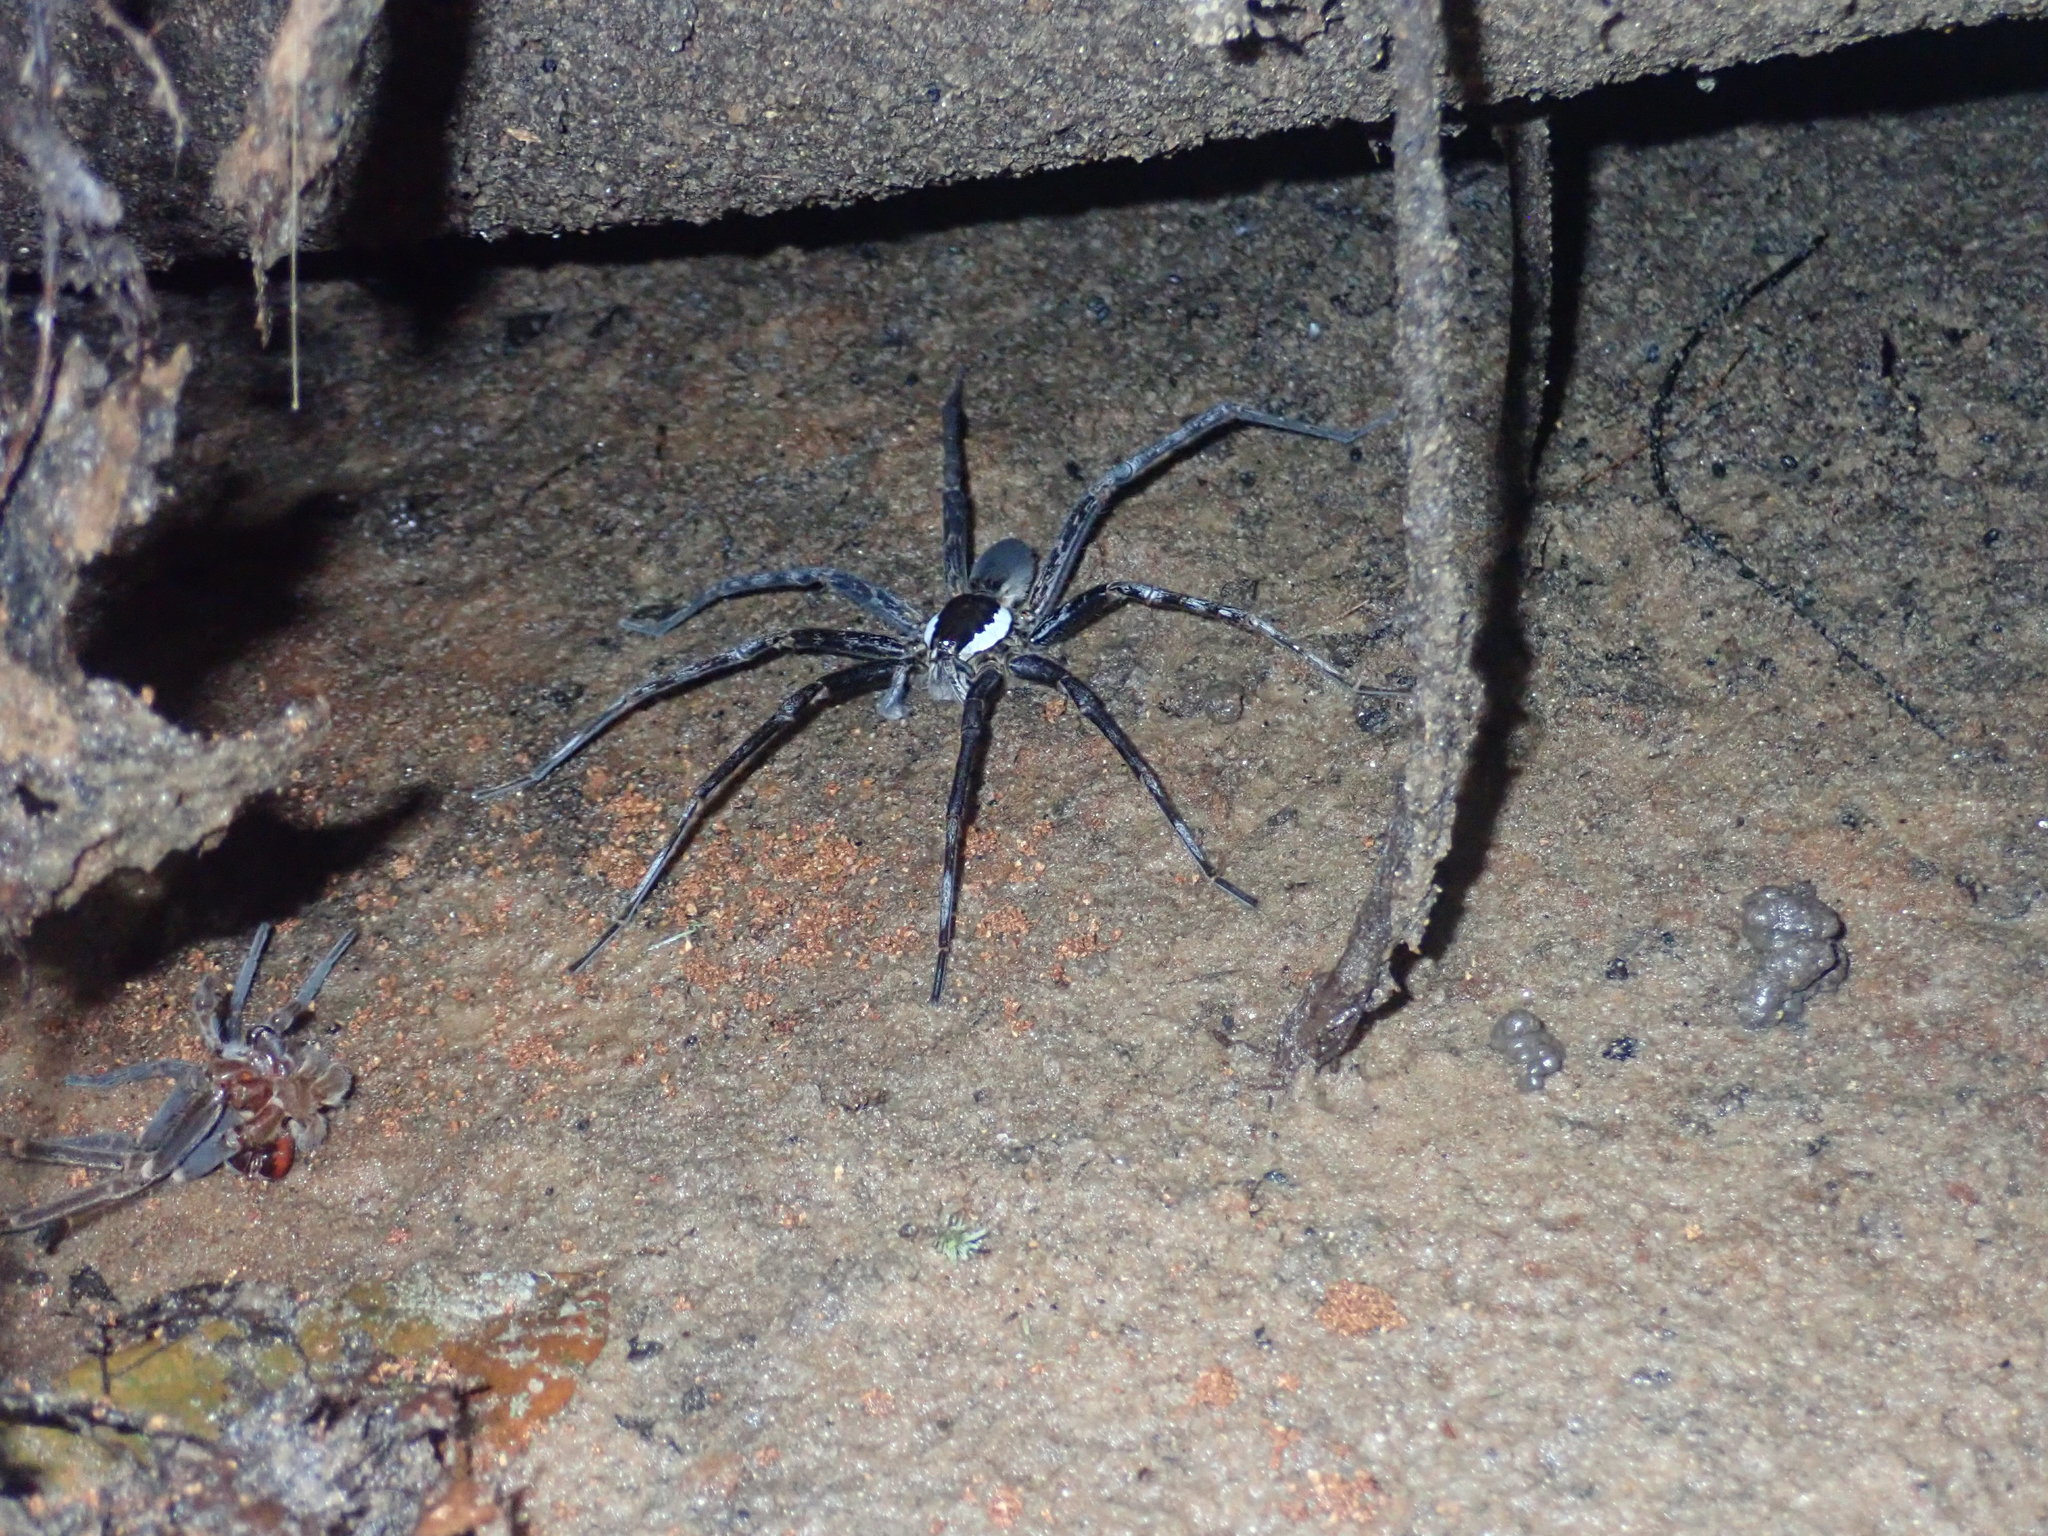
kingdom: Animalia
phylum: Arthropoda
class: Arachnida
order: Araneae
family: Ctenidae
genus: Ancylometes
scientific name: Ancylometes
